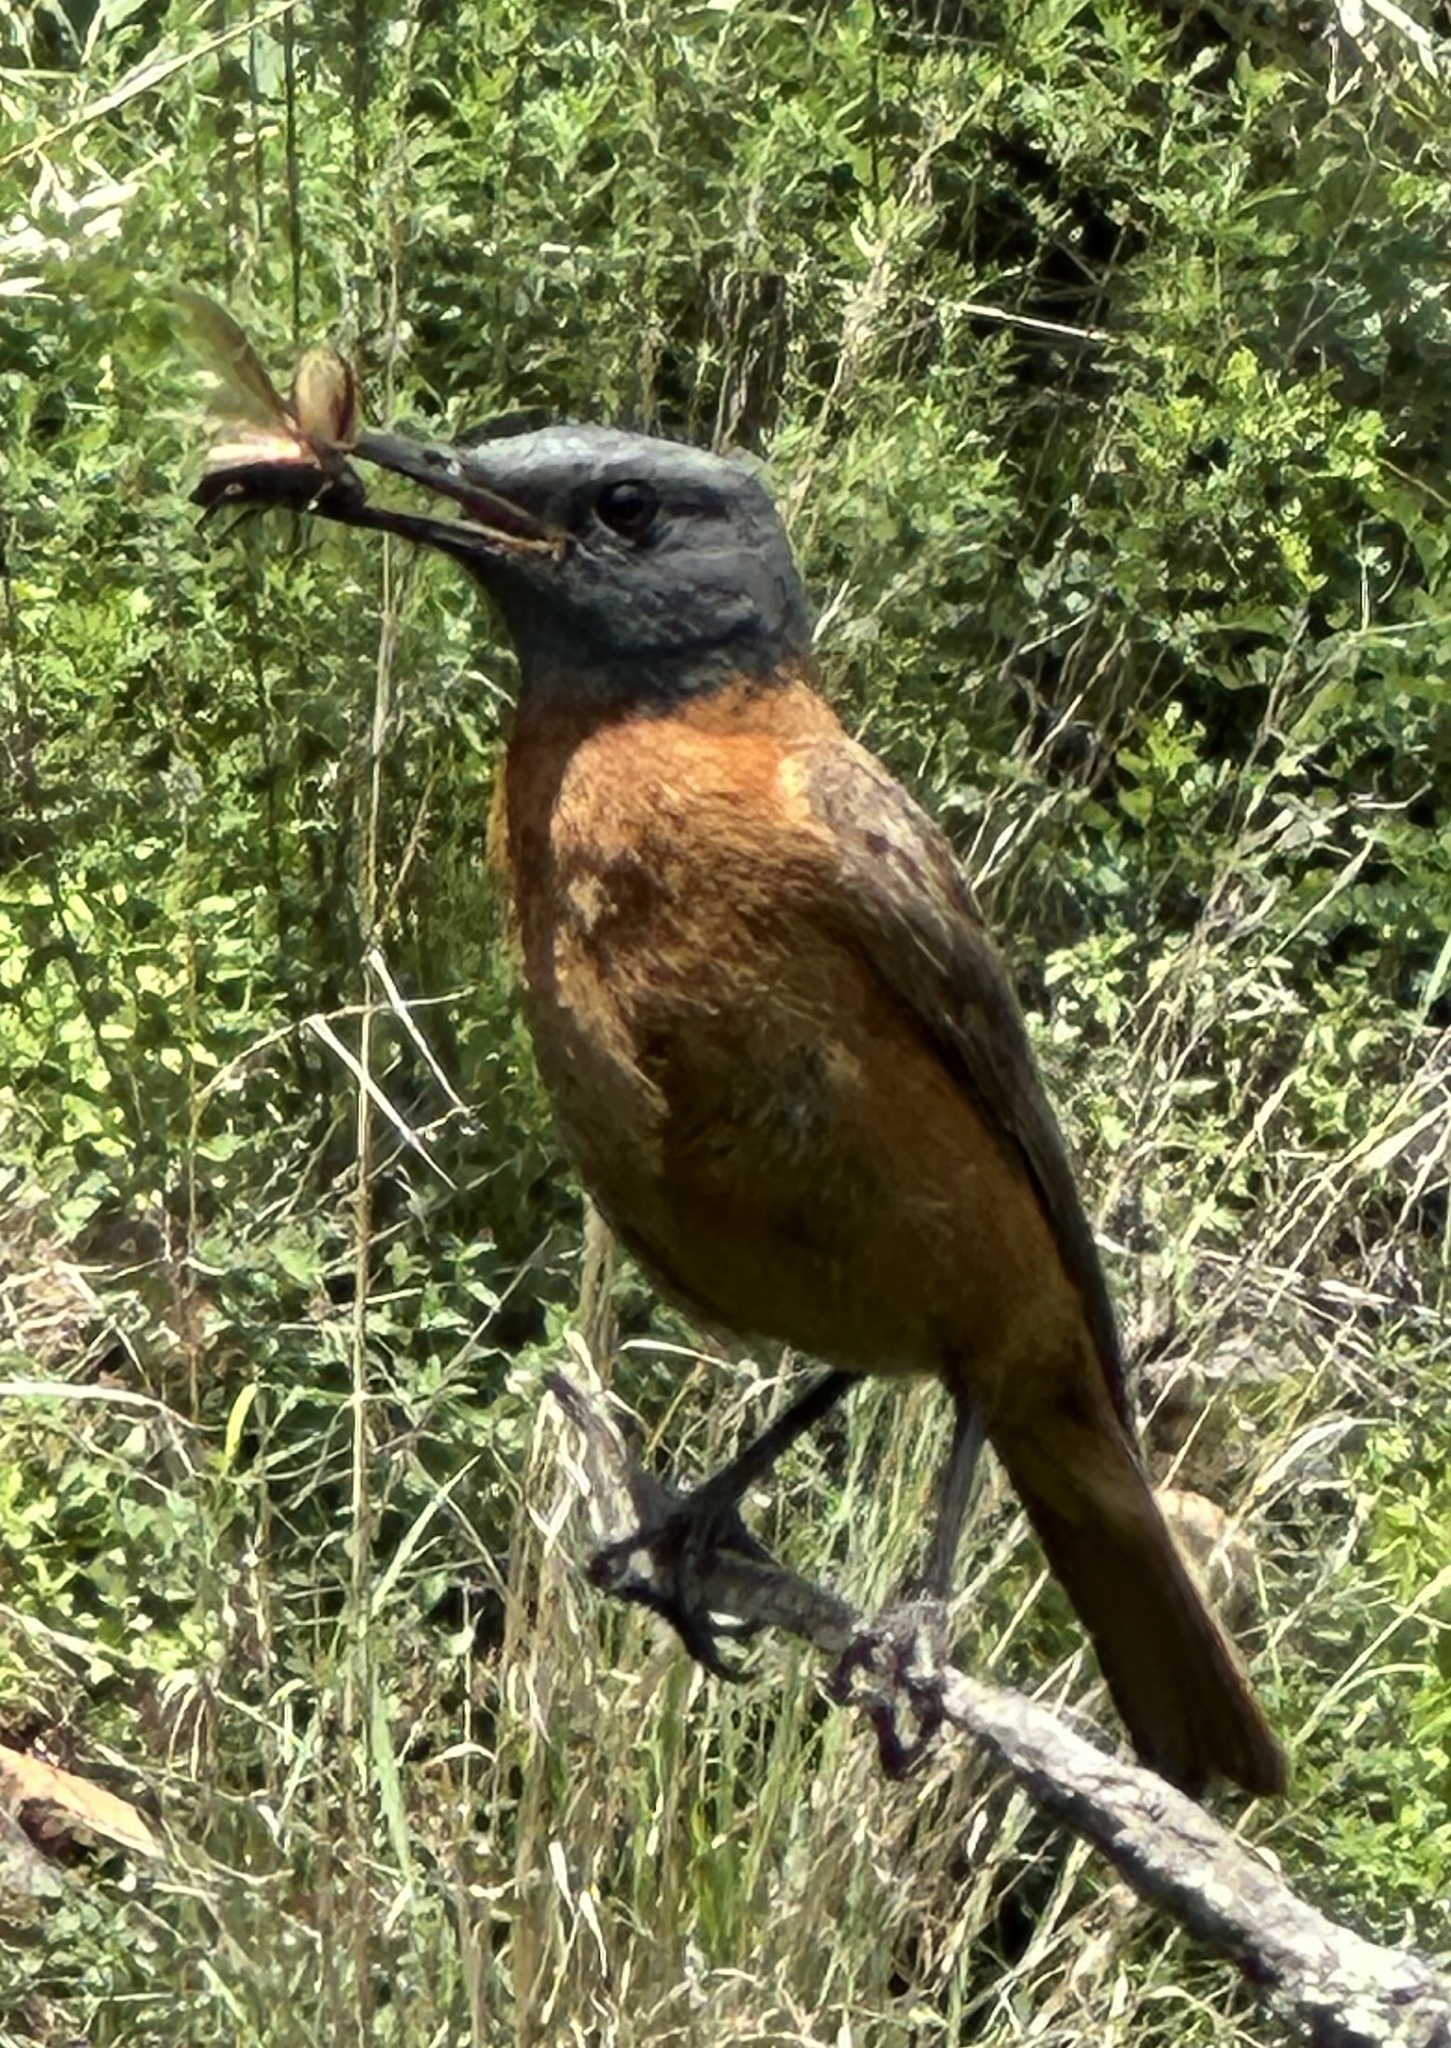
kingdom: Animalia
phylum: Chordata
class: Aves
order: Passeriformes
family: Muscicapidae
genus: Monticola
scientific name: Monticola rupestris
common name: Cape rock thrush
